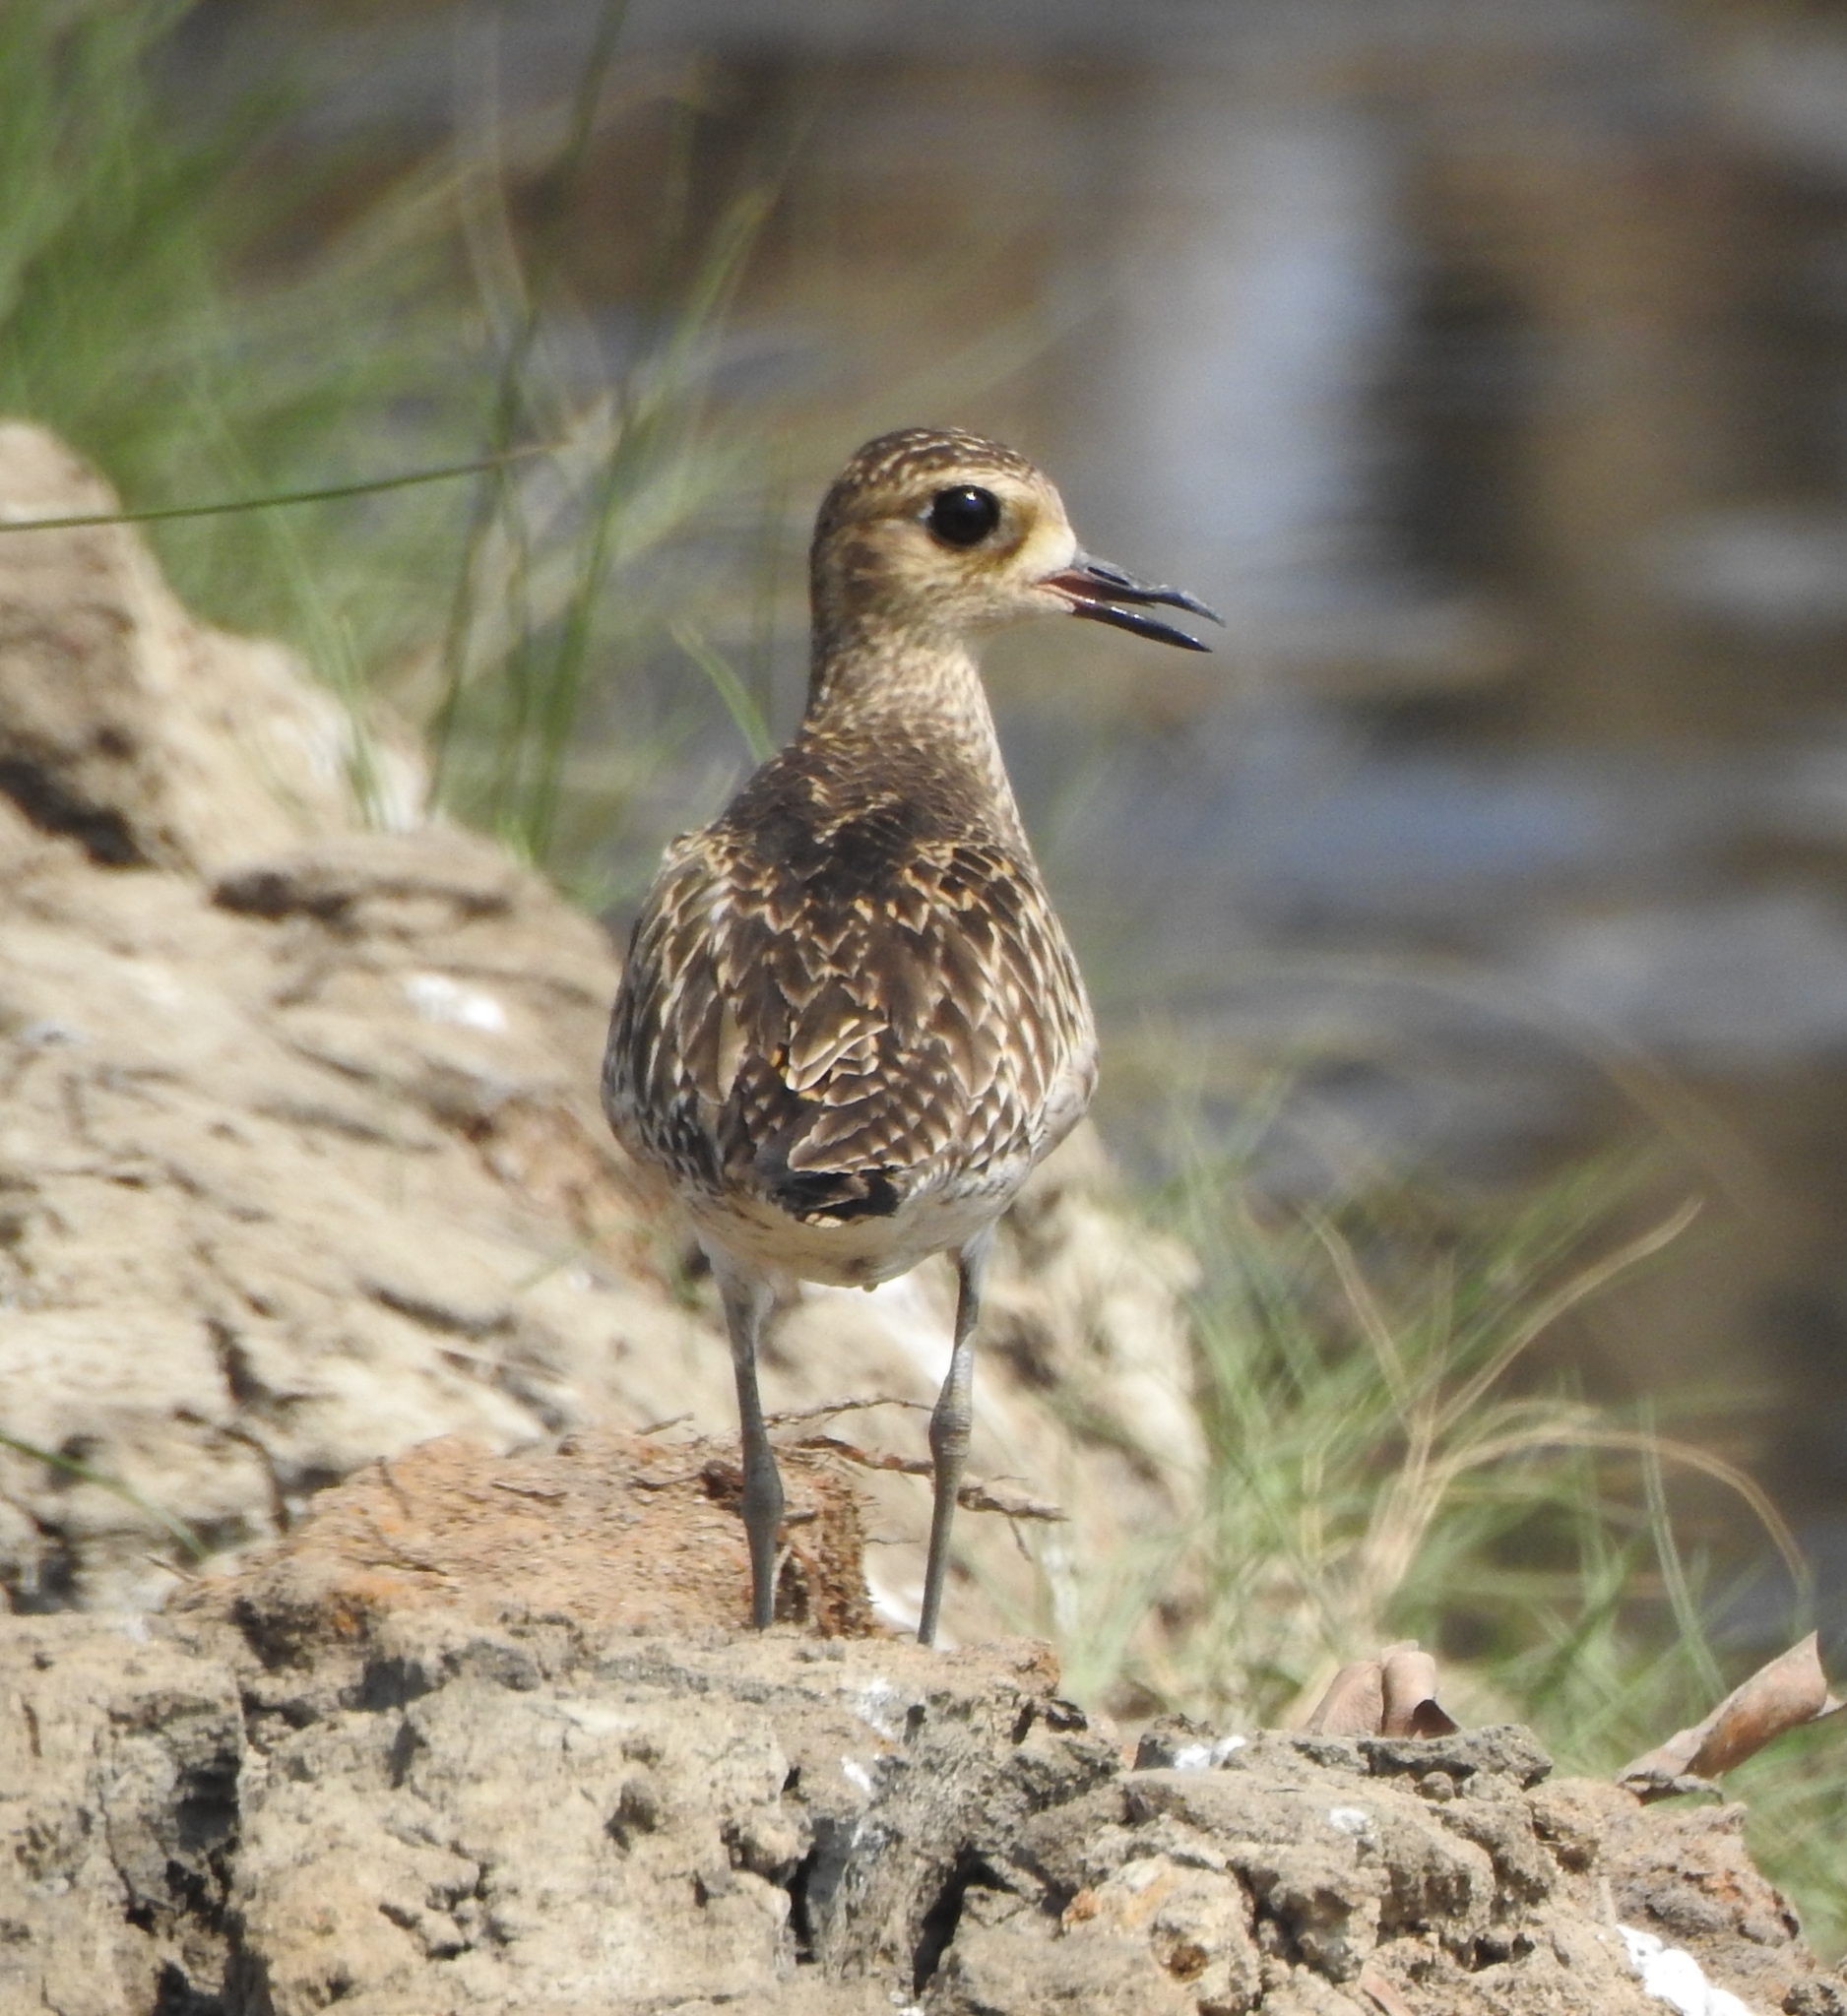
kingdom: Animalia
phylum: Chordata
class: Aves
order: Charadriiformes
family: Charadriidae
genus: Pluvialis
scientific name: Pluvialis fulva
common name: Pacific golden plover
